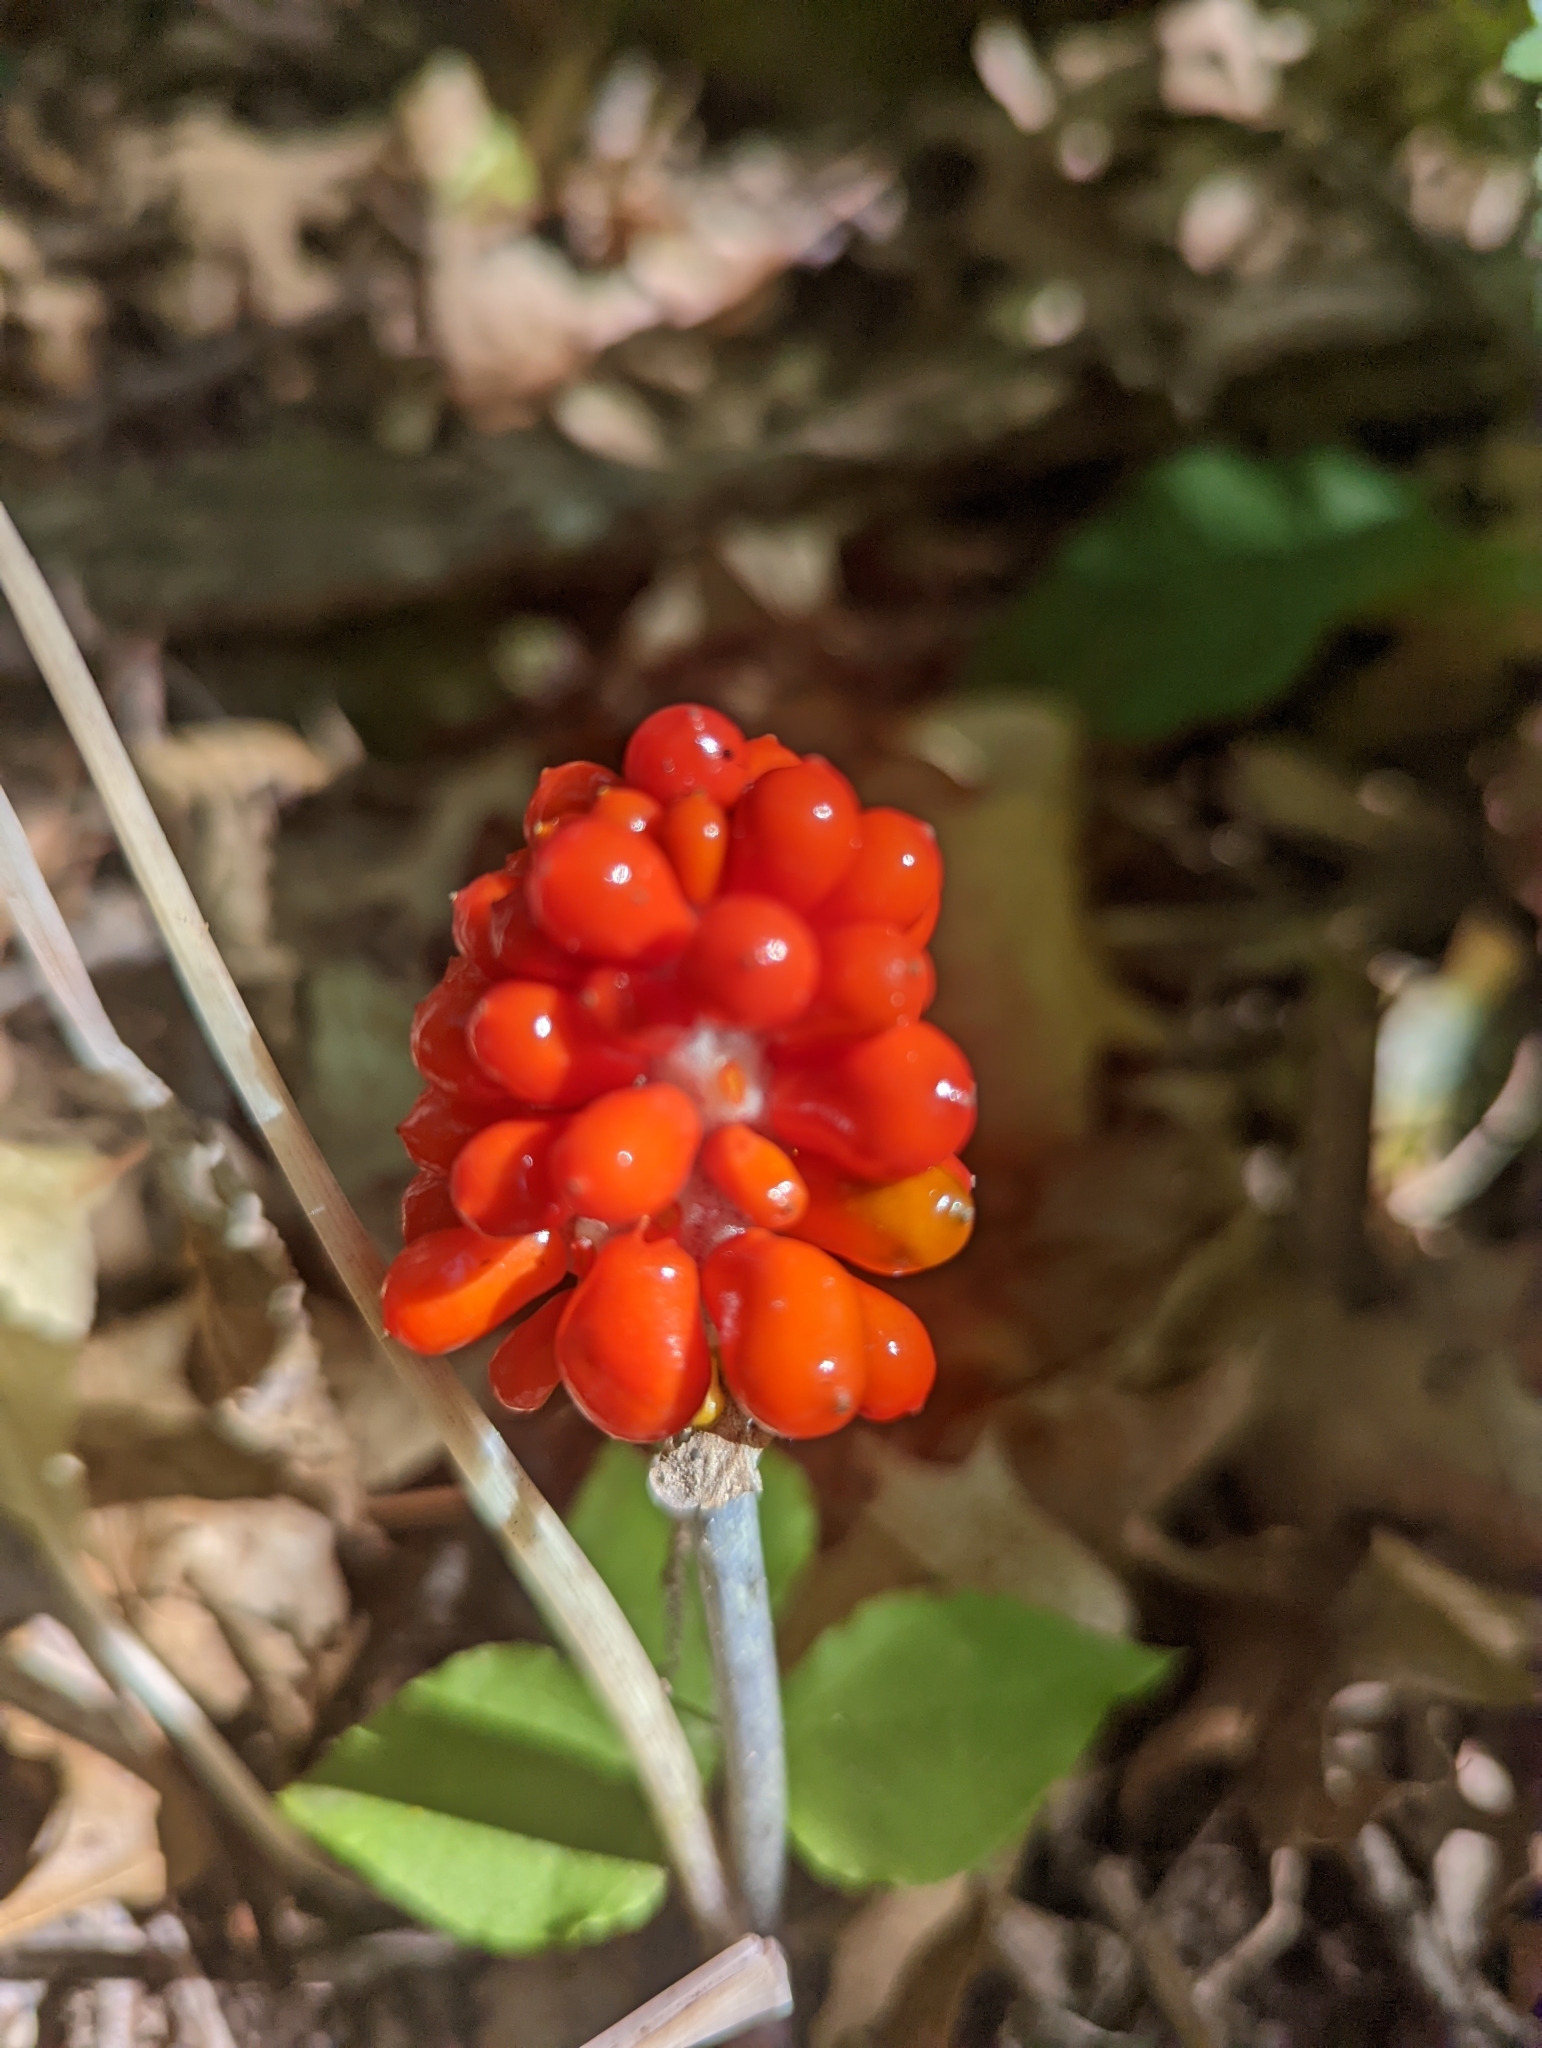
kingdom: Plantae
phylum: Tracheophyta
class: Liliopsida
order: Alismatales
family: Araceae
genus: Arisaema
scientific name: Arisaema triphyllum
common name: Jack-in-the-pulpit
